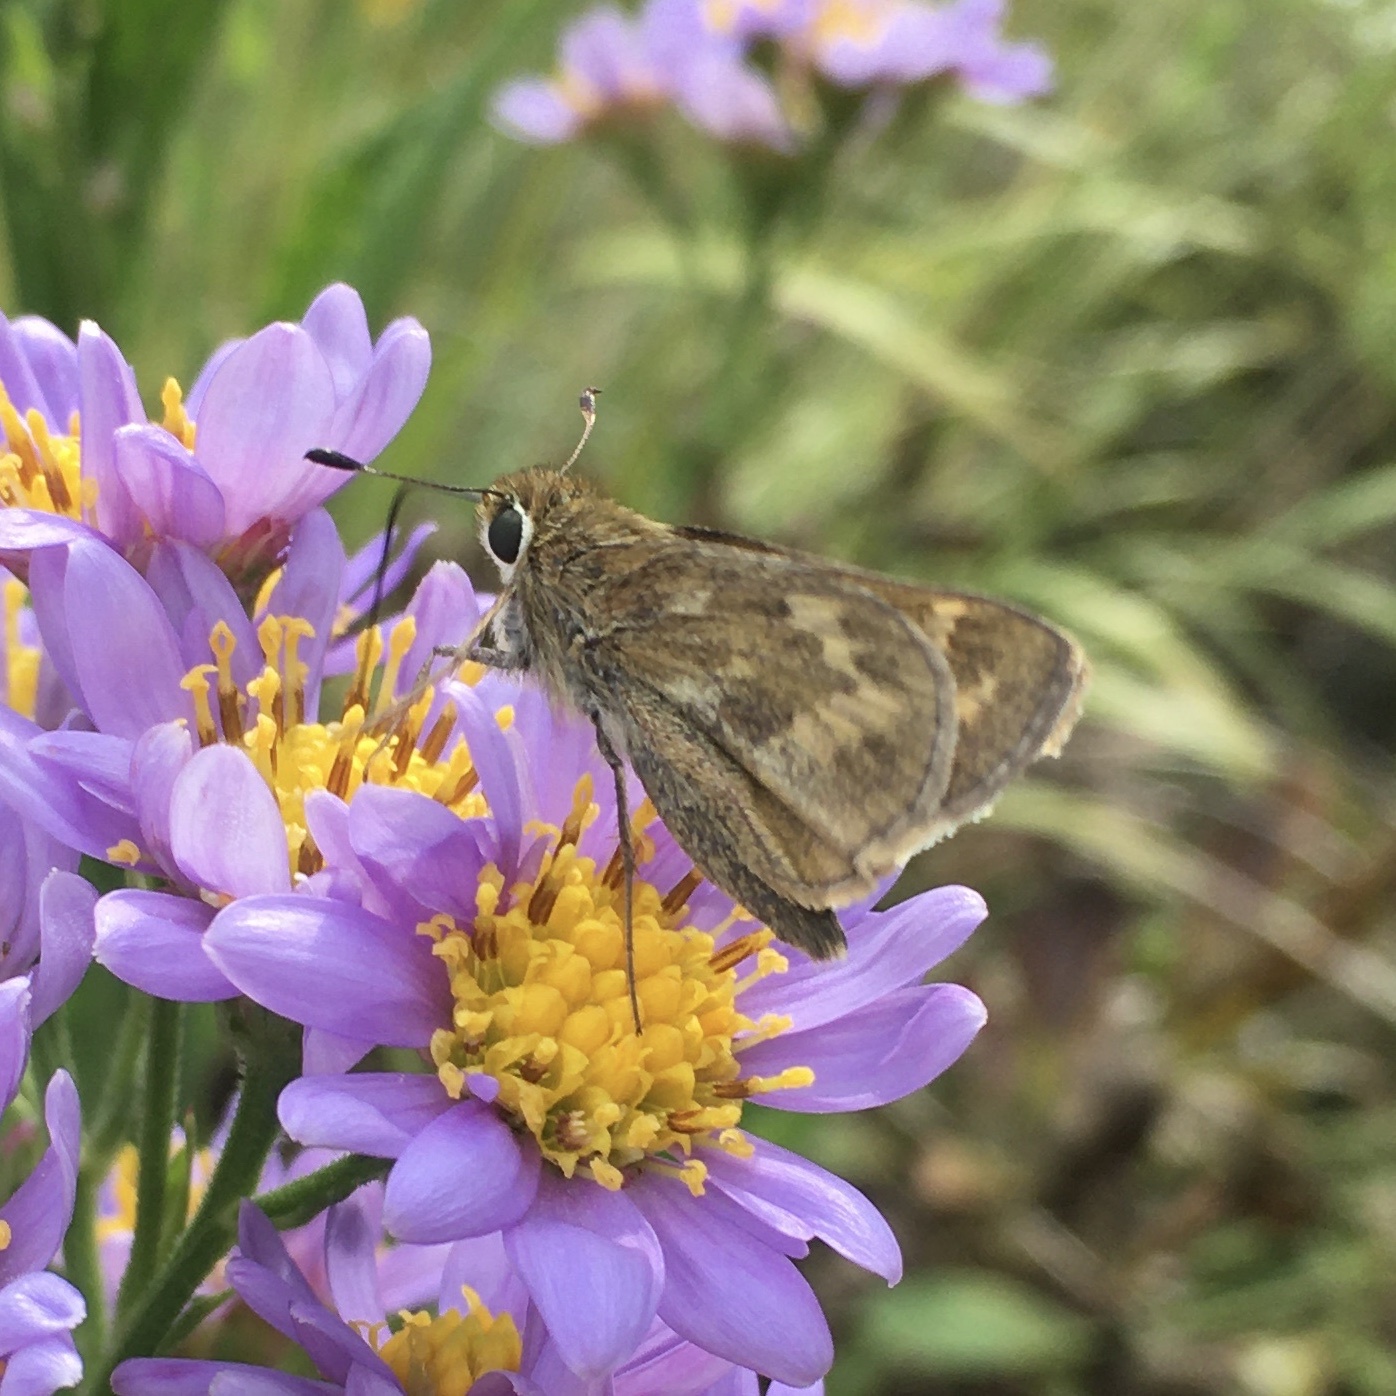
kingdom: Animalia
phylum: Arthropoda
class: Insecta
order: Lepidoptera
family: Hesperiidae
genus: Atalopedes
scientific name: Atalopedes
